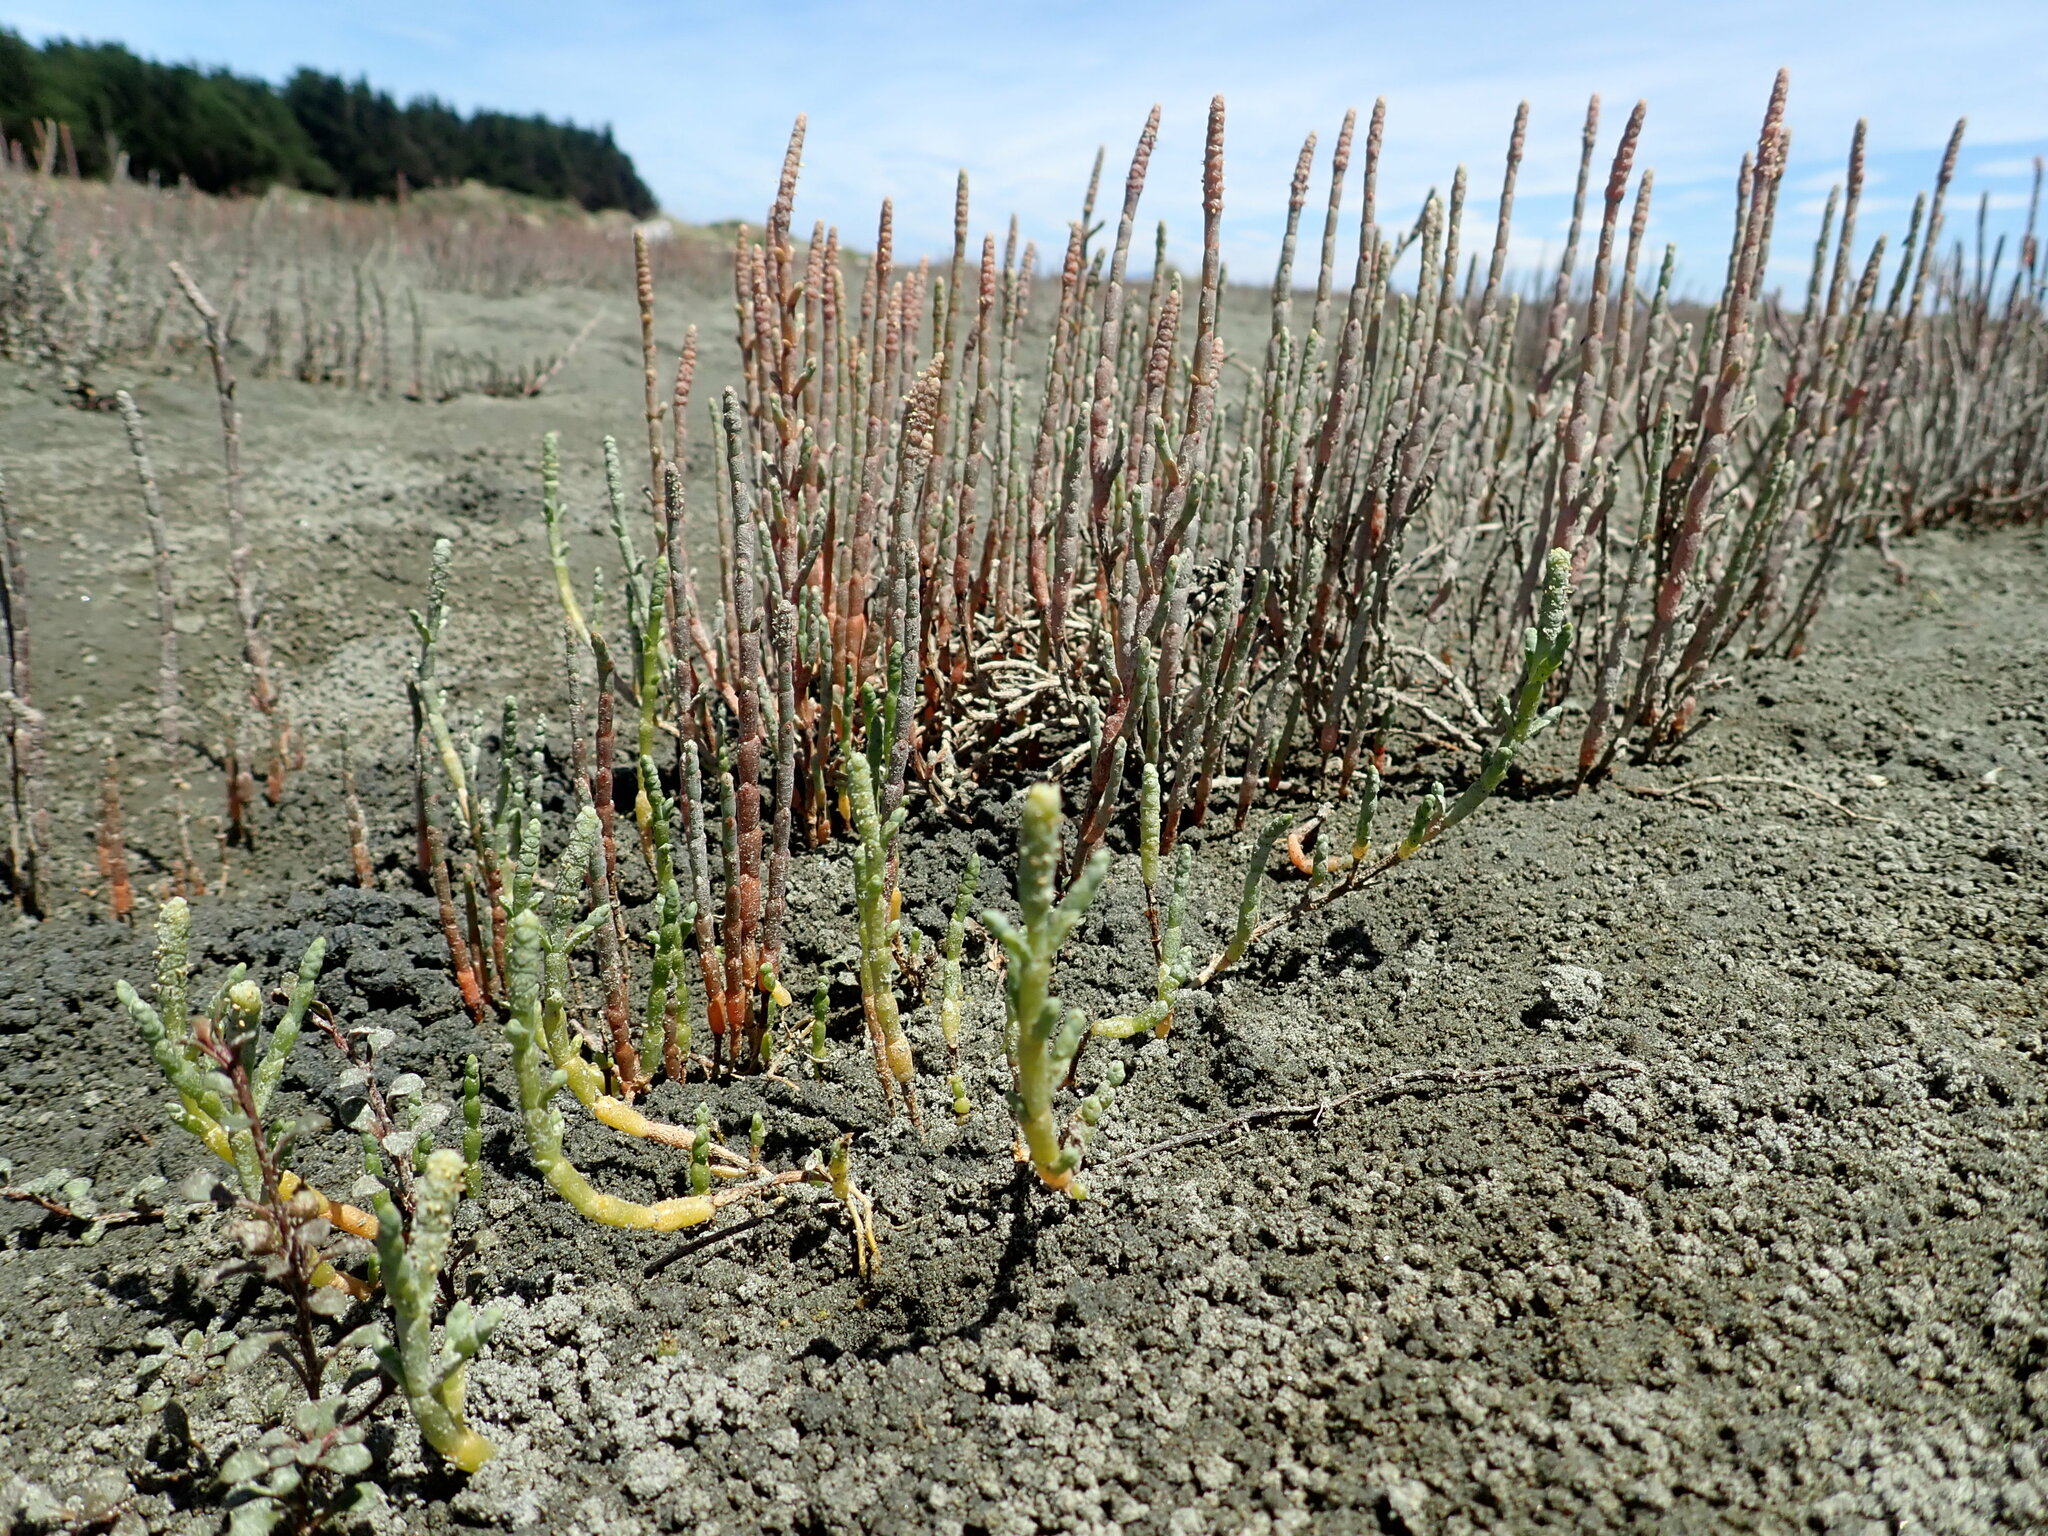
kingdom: Plantae
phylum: Tracheophyta
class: Magnoliopsida
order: Caryophyllales
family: Amaranthaceae
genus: Salicornia
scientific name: Salicornia quinqueflora
